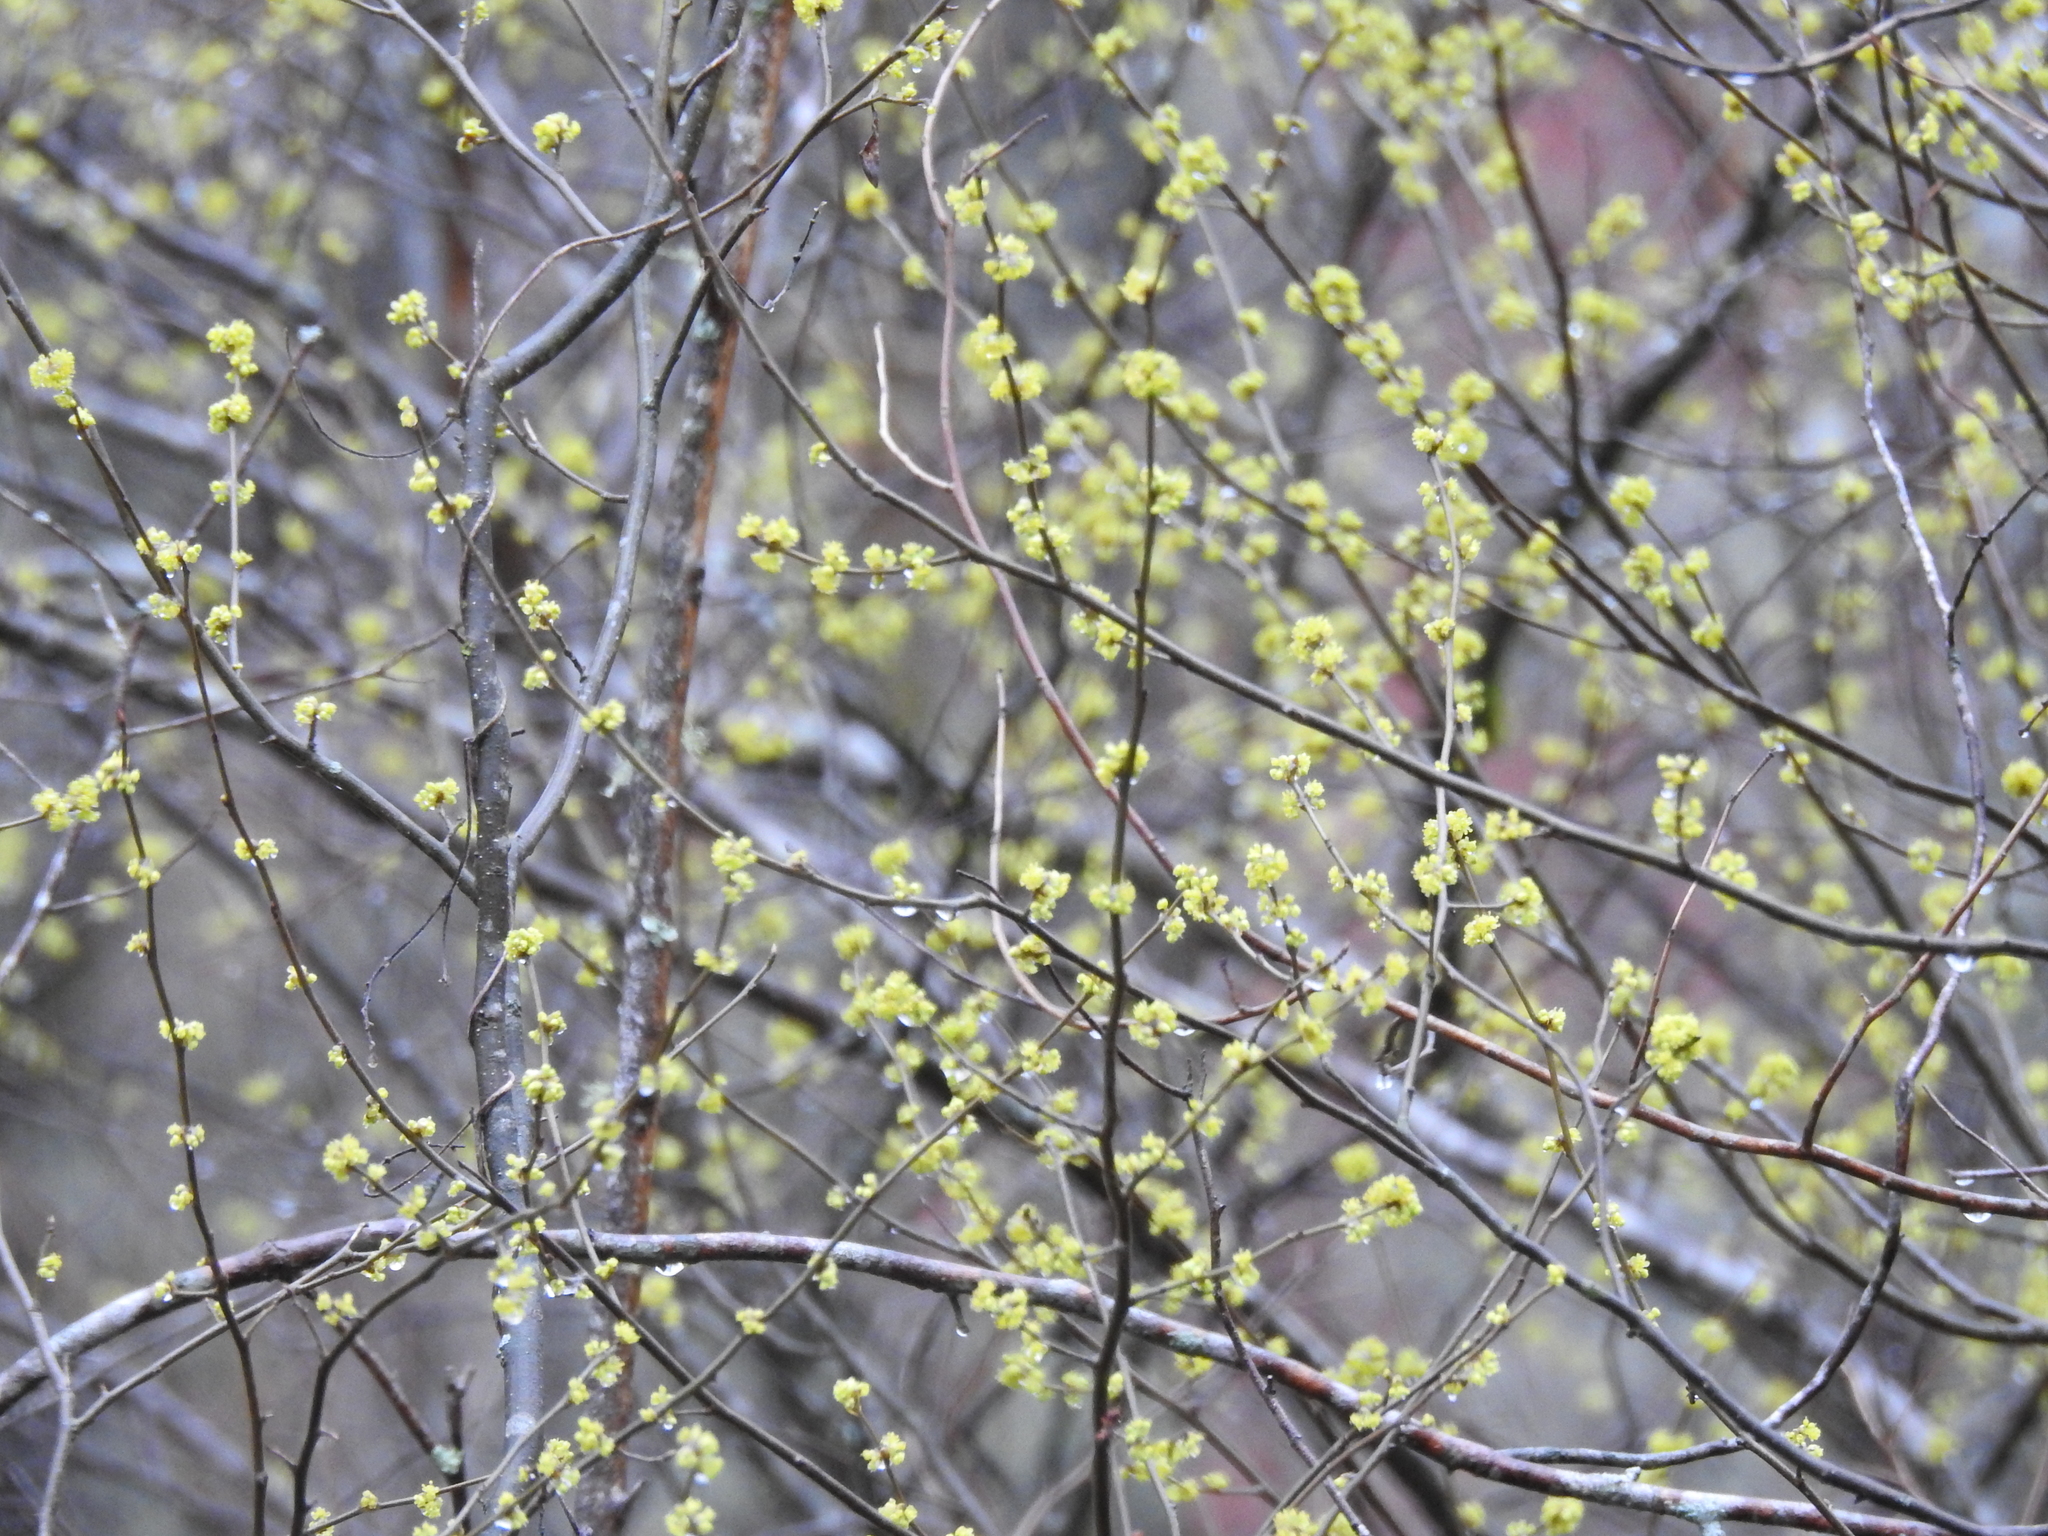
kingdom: Plantae
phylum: Tracheophyta
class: Magnoliopsida
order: Laurales
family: Lauraceae
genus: Lindera
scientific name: Lindera benzoin
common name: Spicebush
